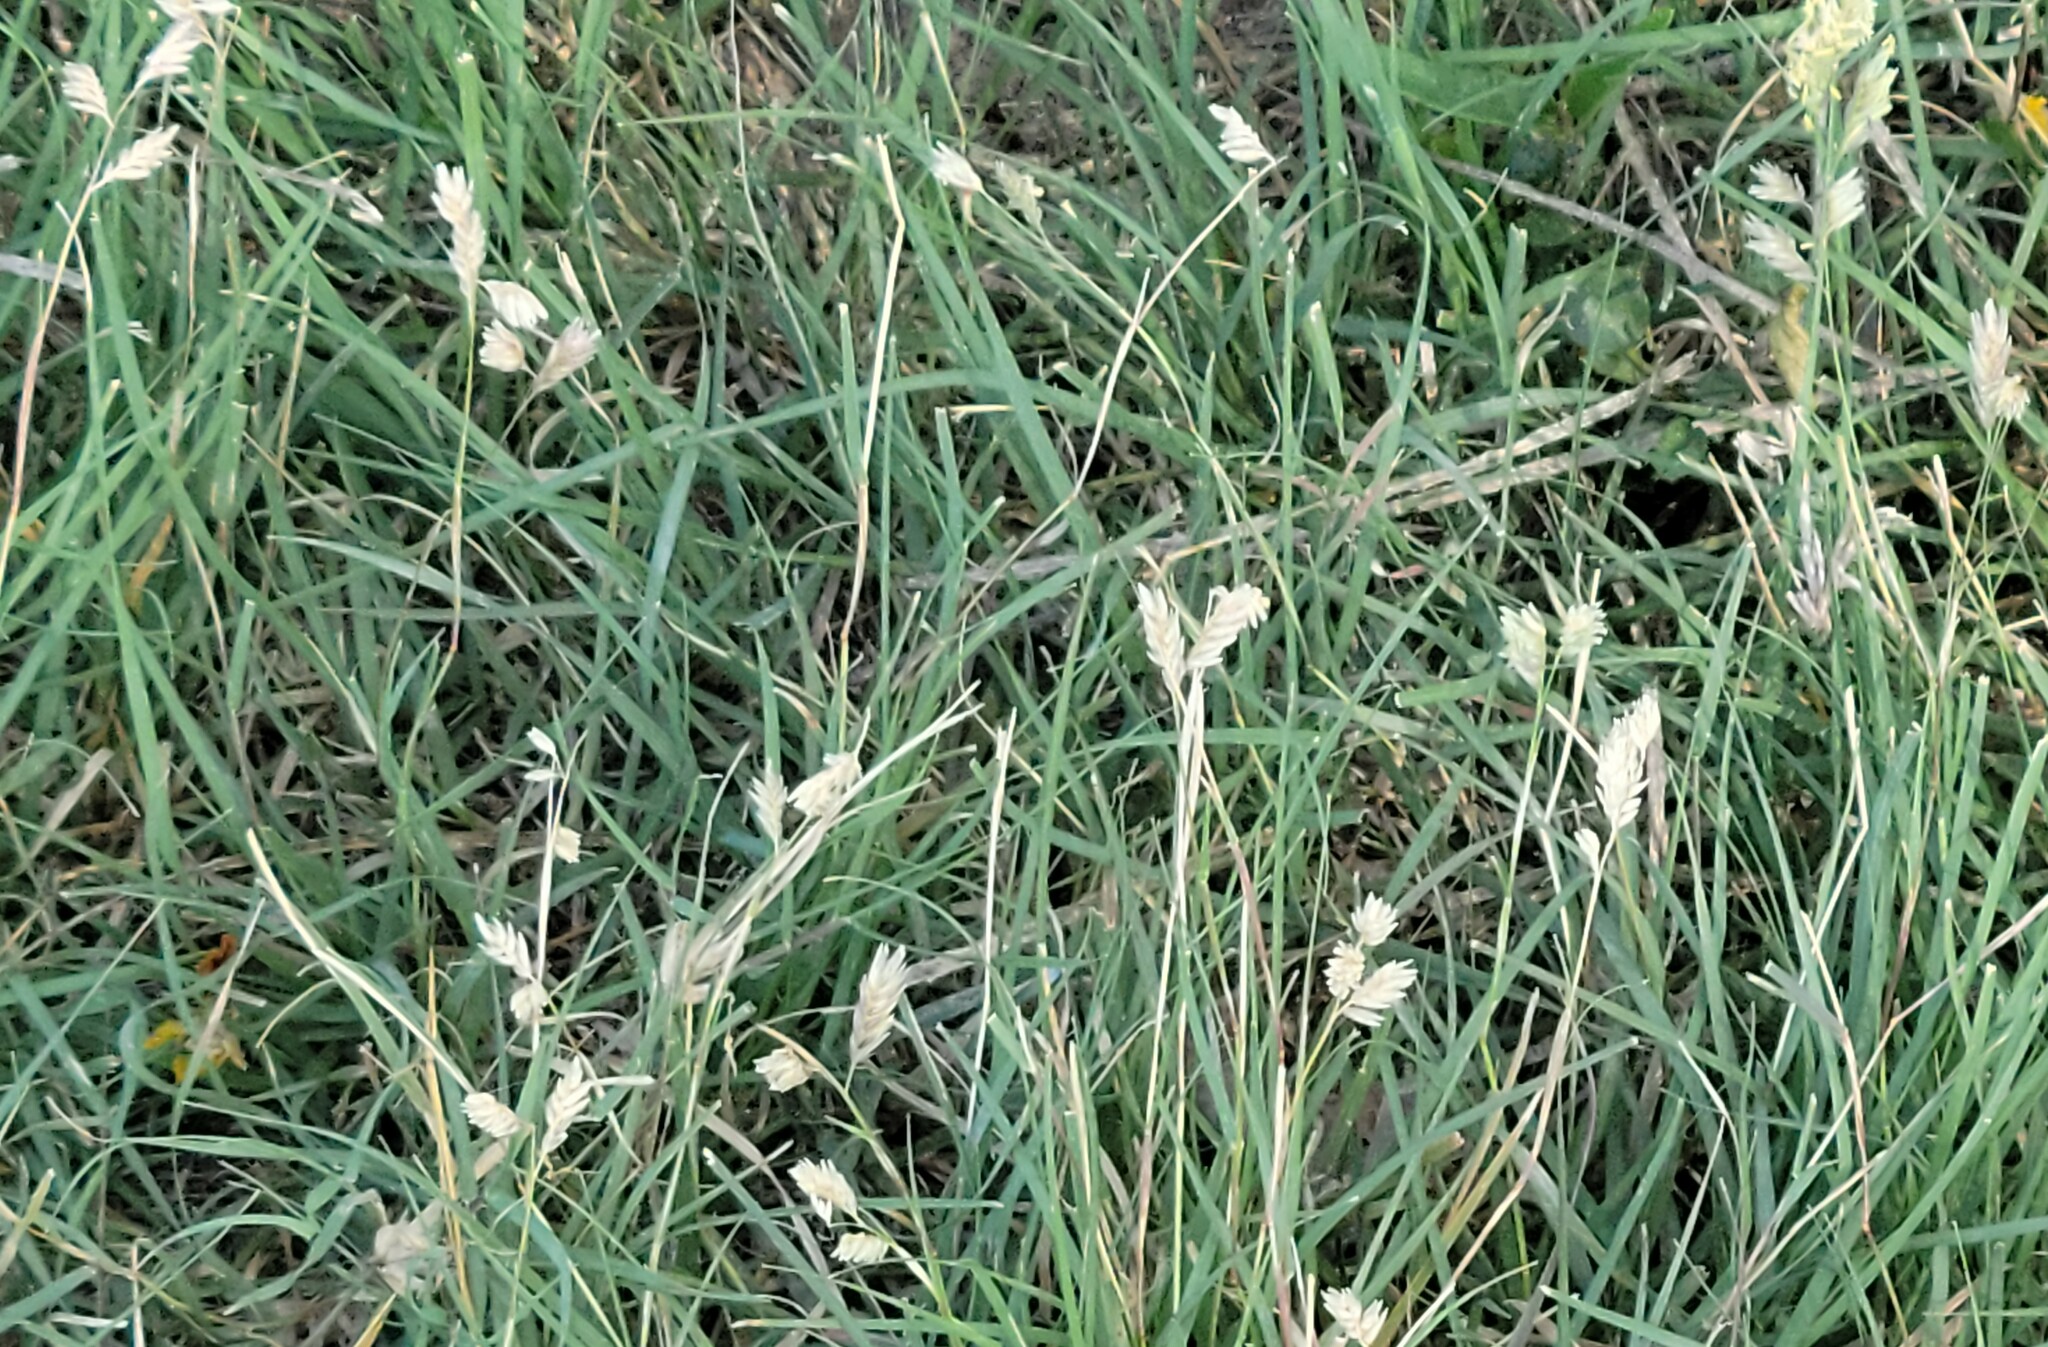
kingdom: Plantae
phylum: Tracheophyta
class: Liliopsida
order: Poales
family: Poaceae
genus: Bouteloua
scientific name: Bouteloua dactyloides
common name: Buffalo grass
